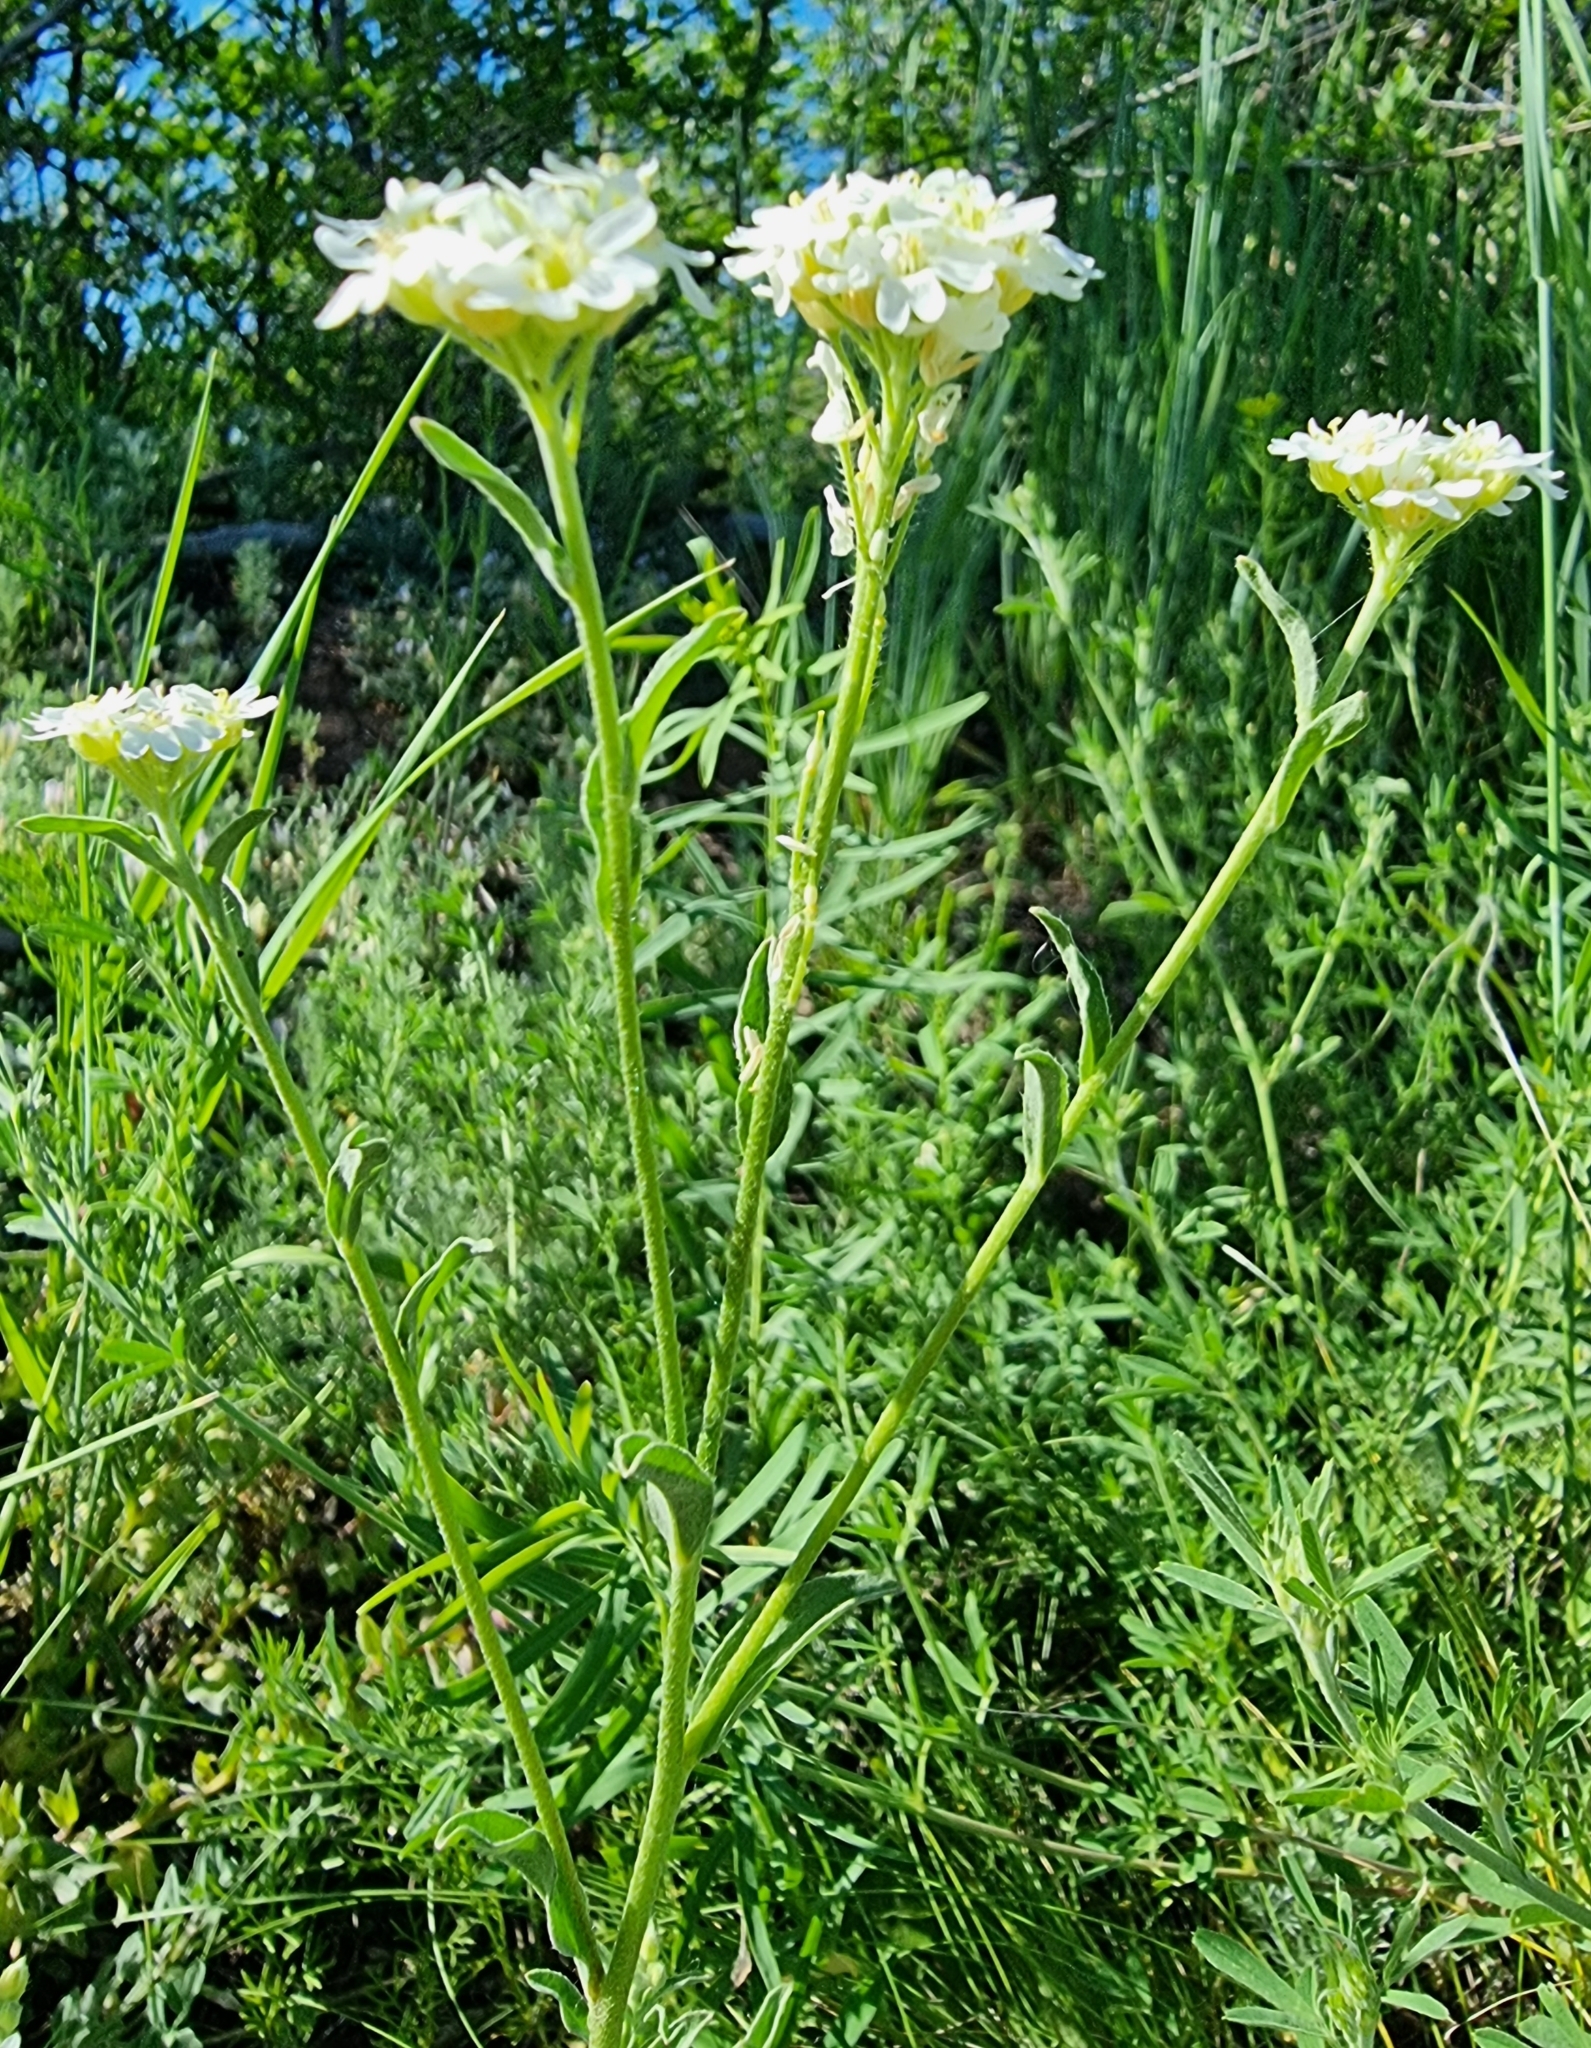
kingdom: Plantae
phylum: Tracheophyta
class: Magnoliopsida
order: Brassicales
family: Brassicaceae
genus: Berteroa
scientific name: Berteroa incana
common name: Hoary alison
